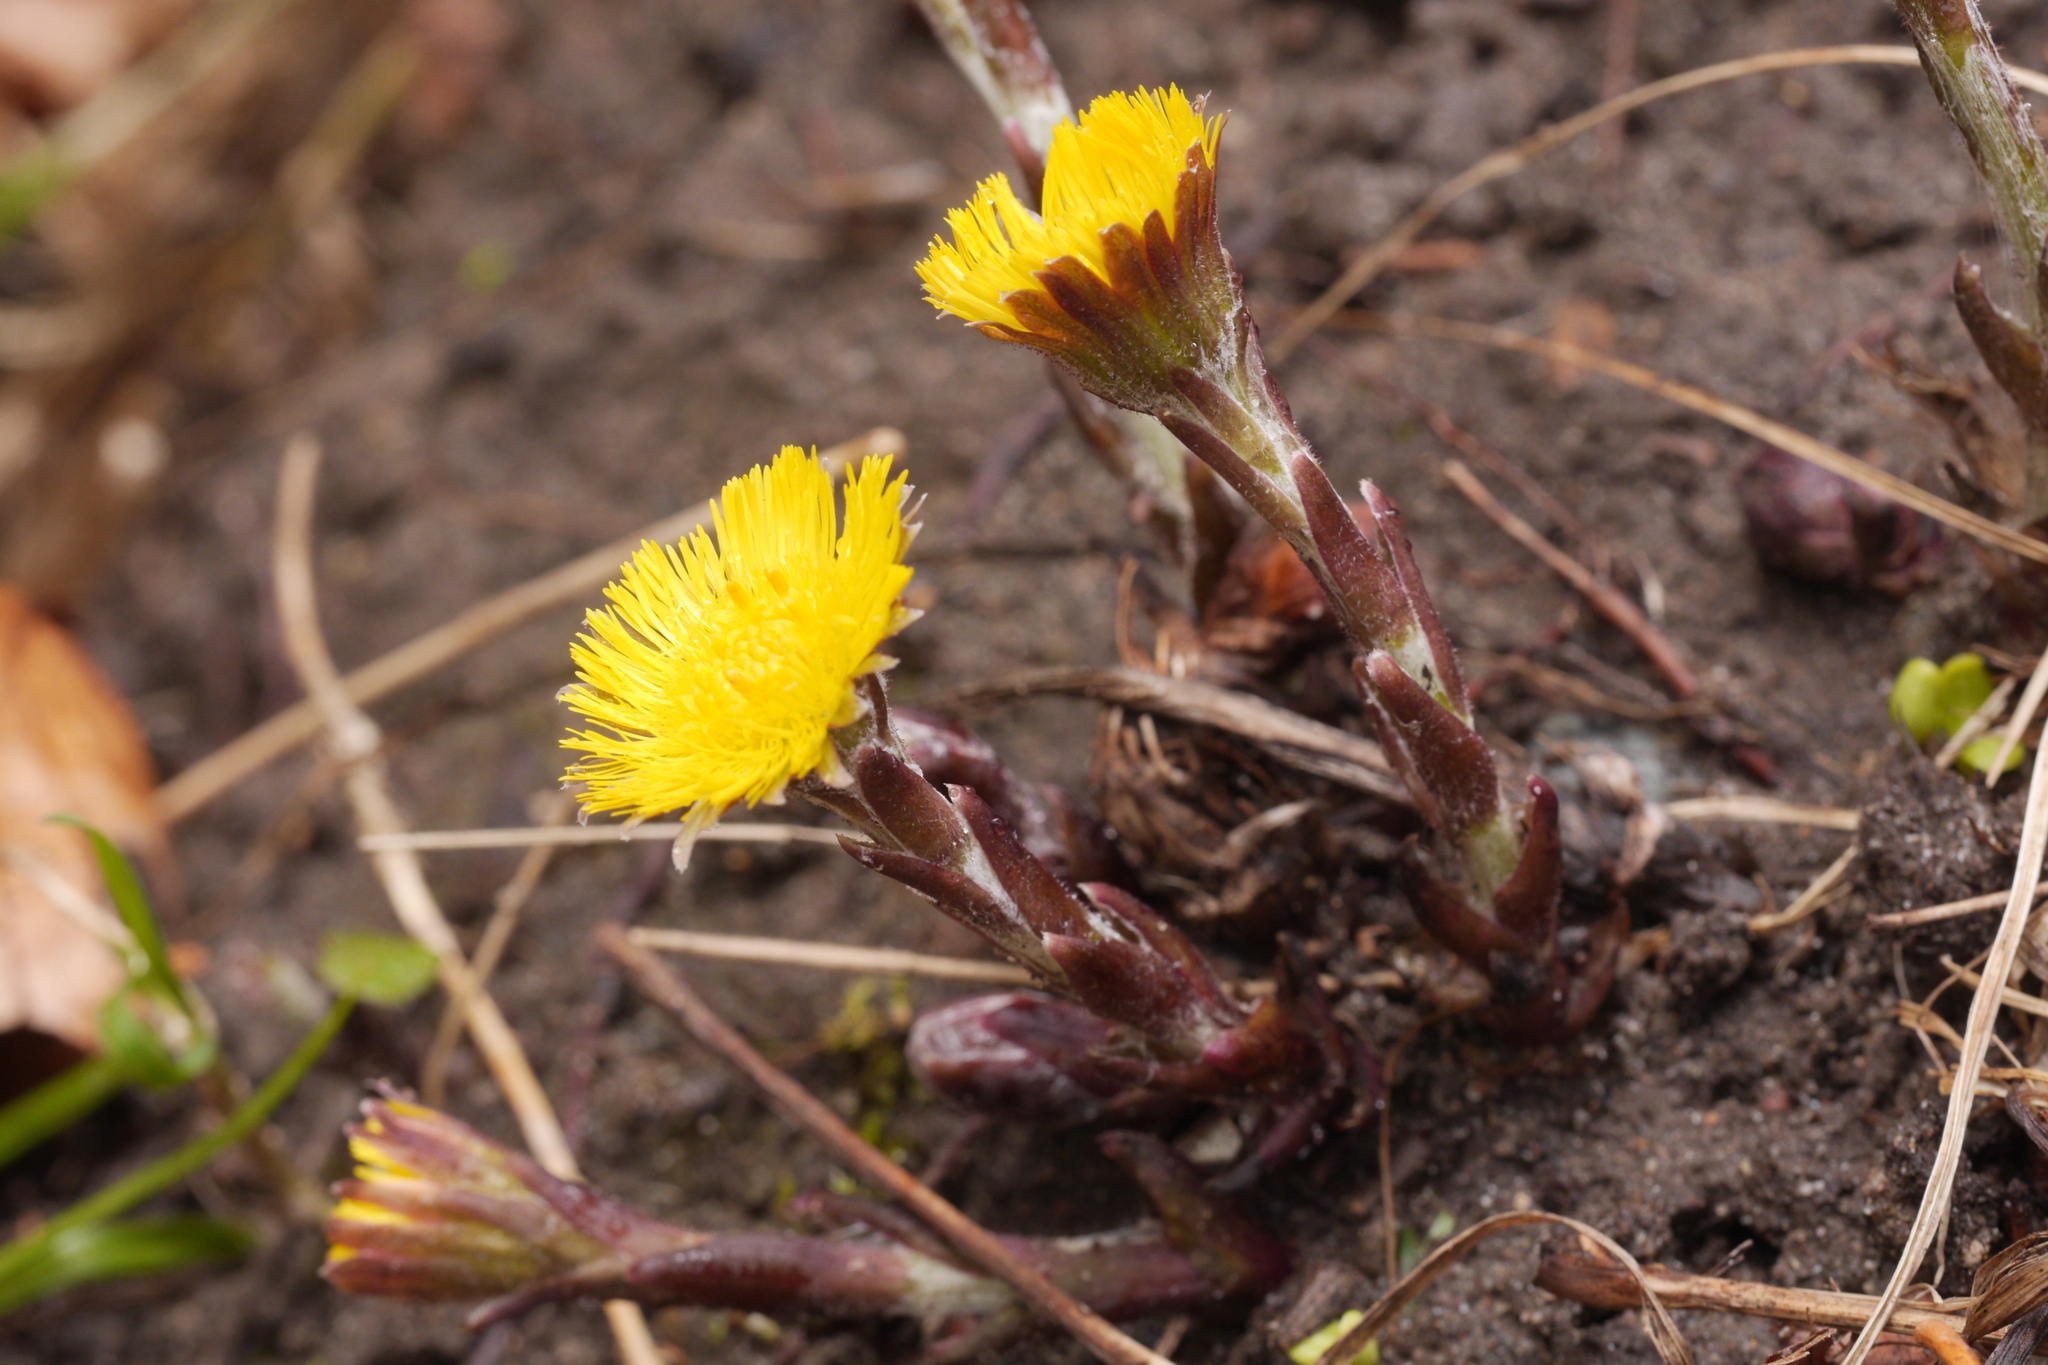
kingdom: Plantae
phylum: Tracheophyta
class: Magnoliopsida
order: Asterales
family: Asteraceae
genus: Tussilago
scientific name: Tussilago farfara
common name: Coltsfoot
